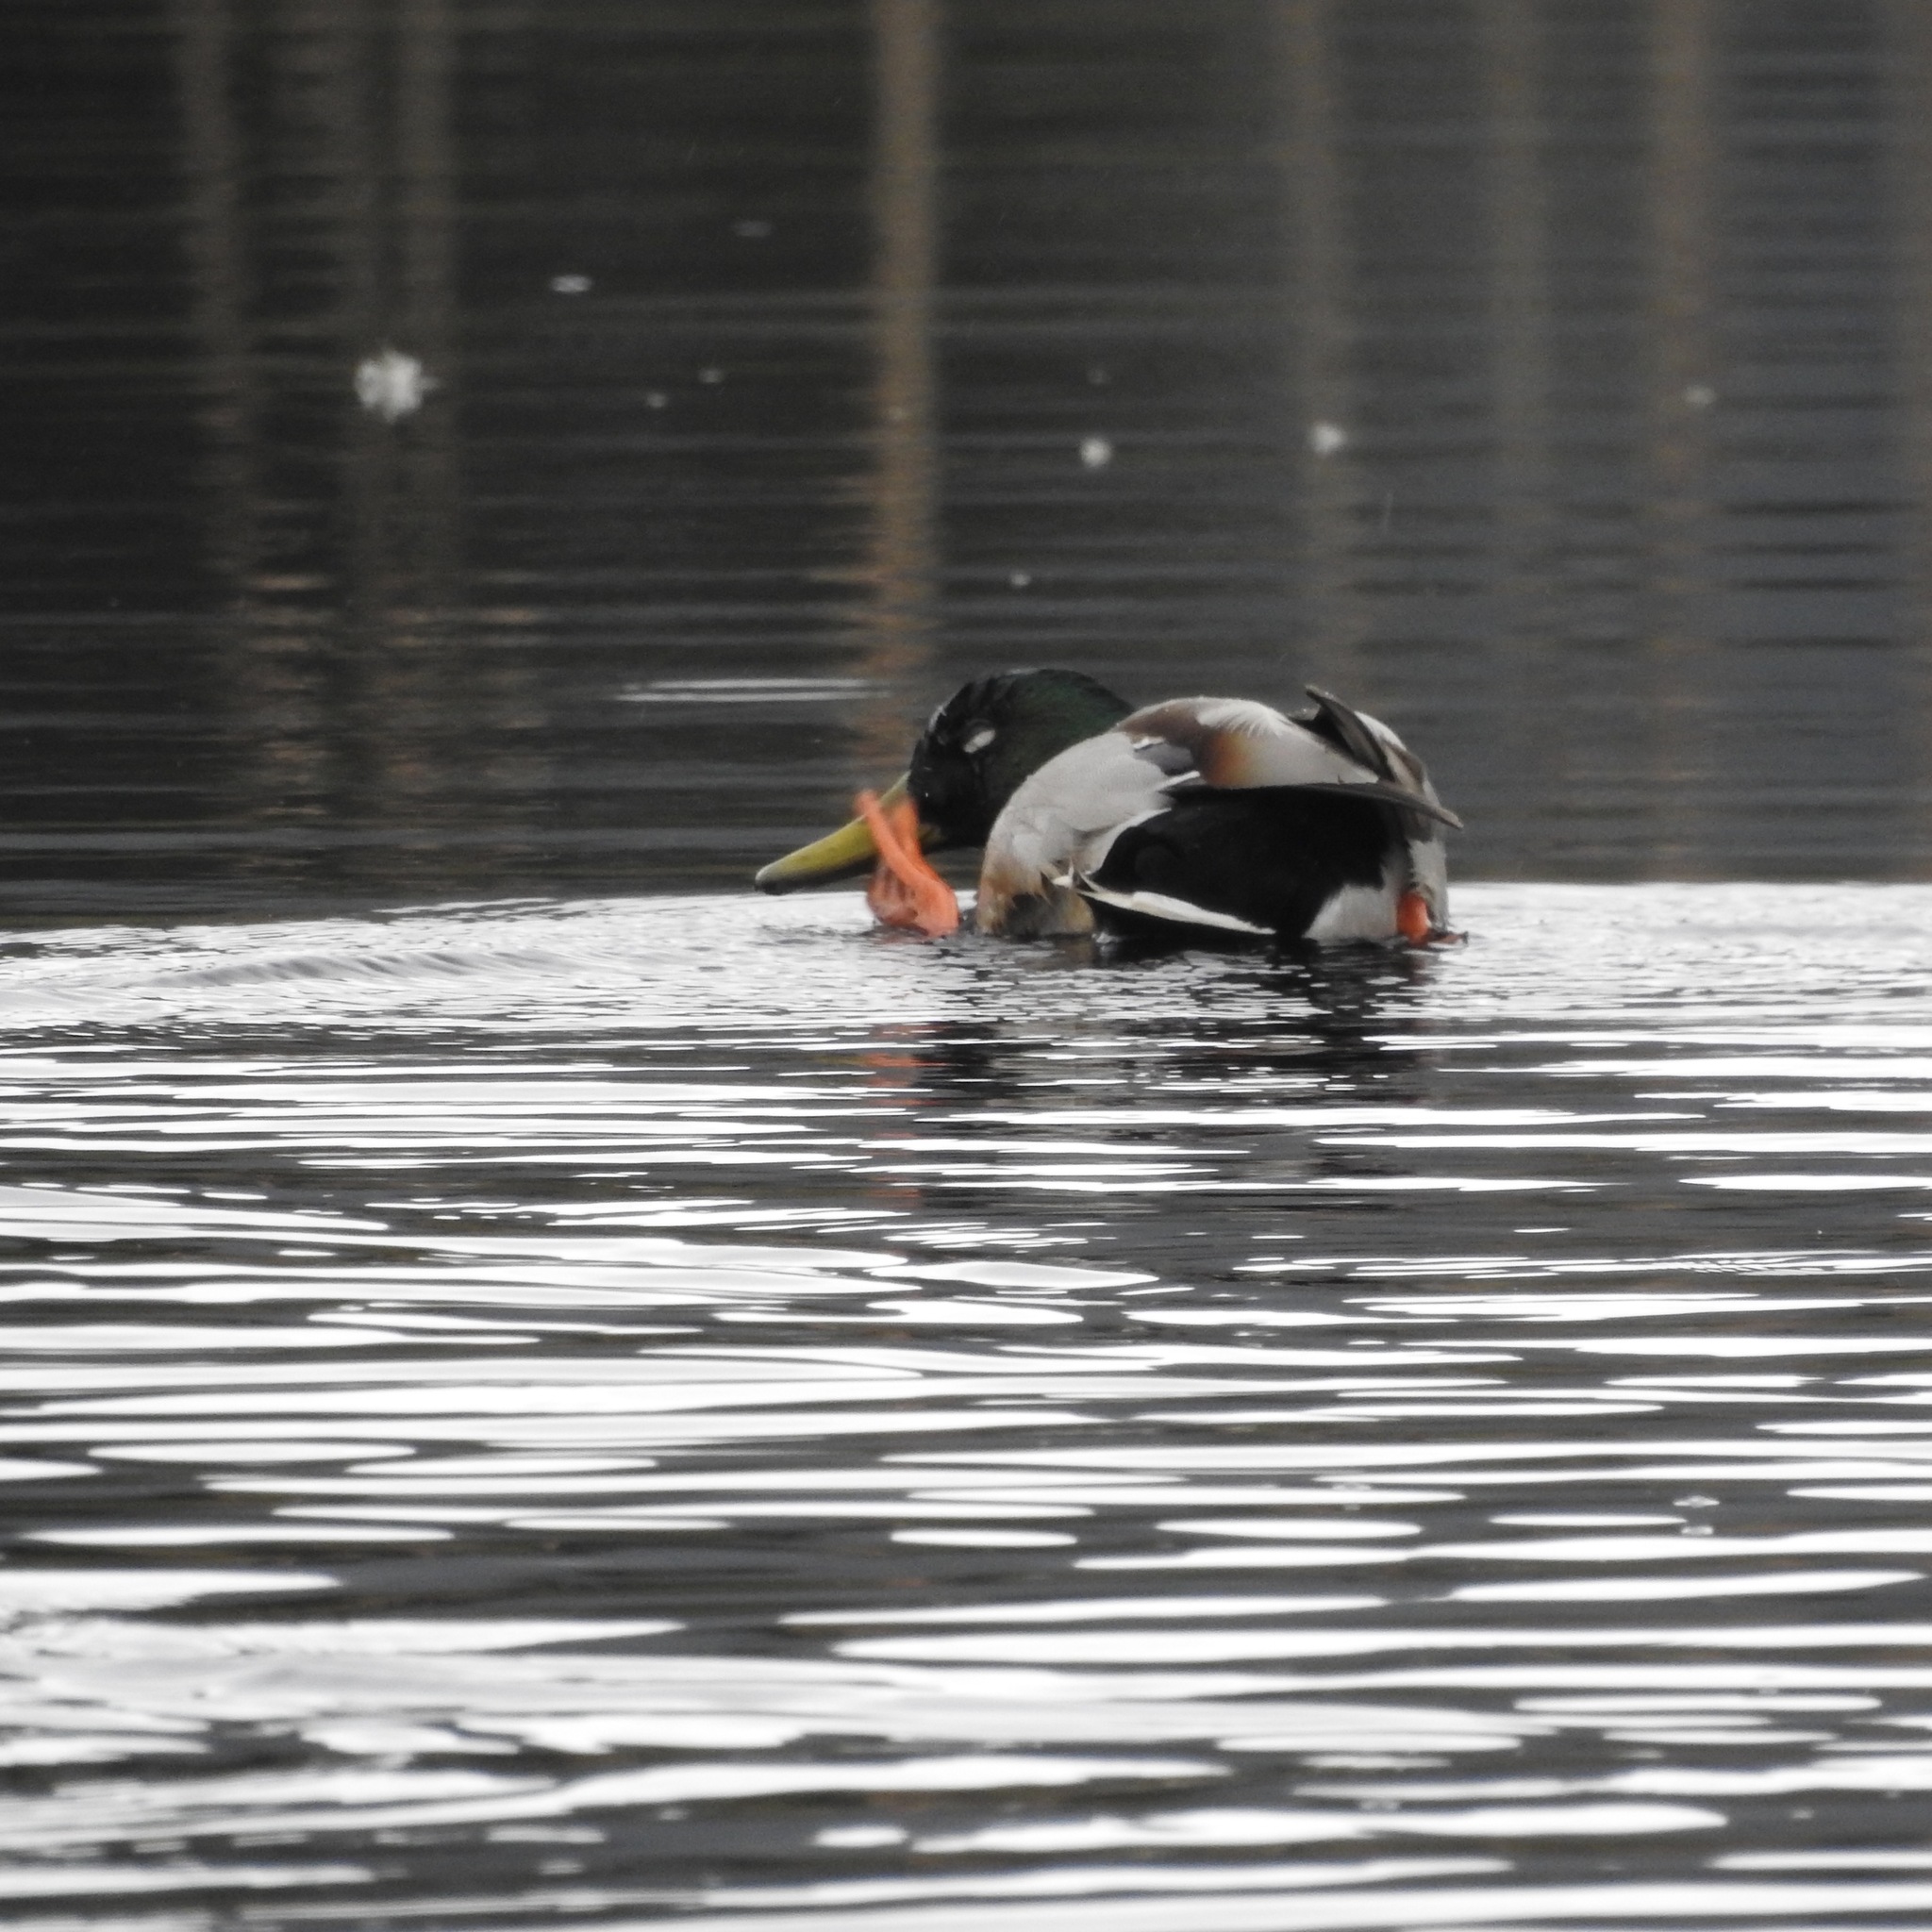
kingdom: Animalia
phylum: Chordata
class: Aves
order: Anseriformes
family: Anatidae
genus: Anas
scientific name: Anas platyrhynchos
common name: Mallard
